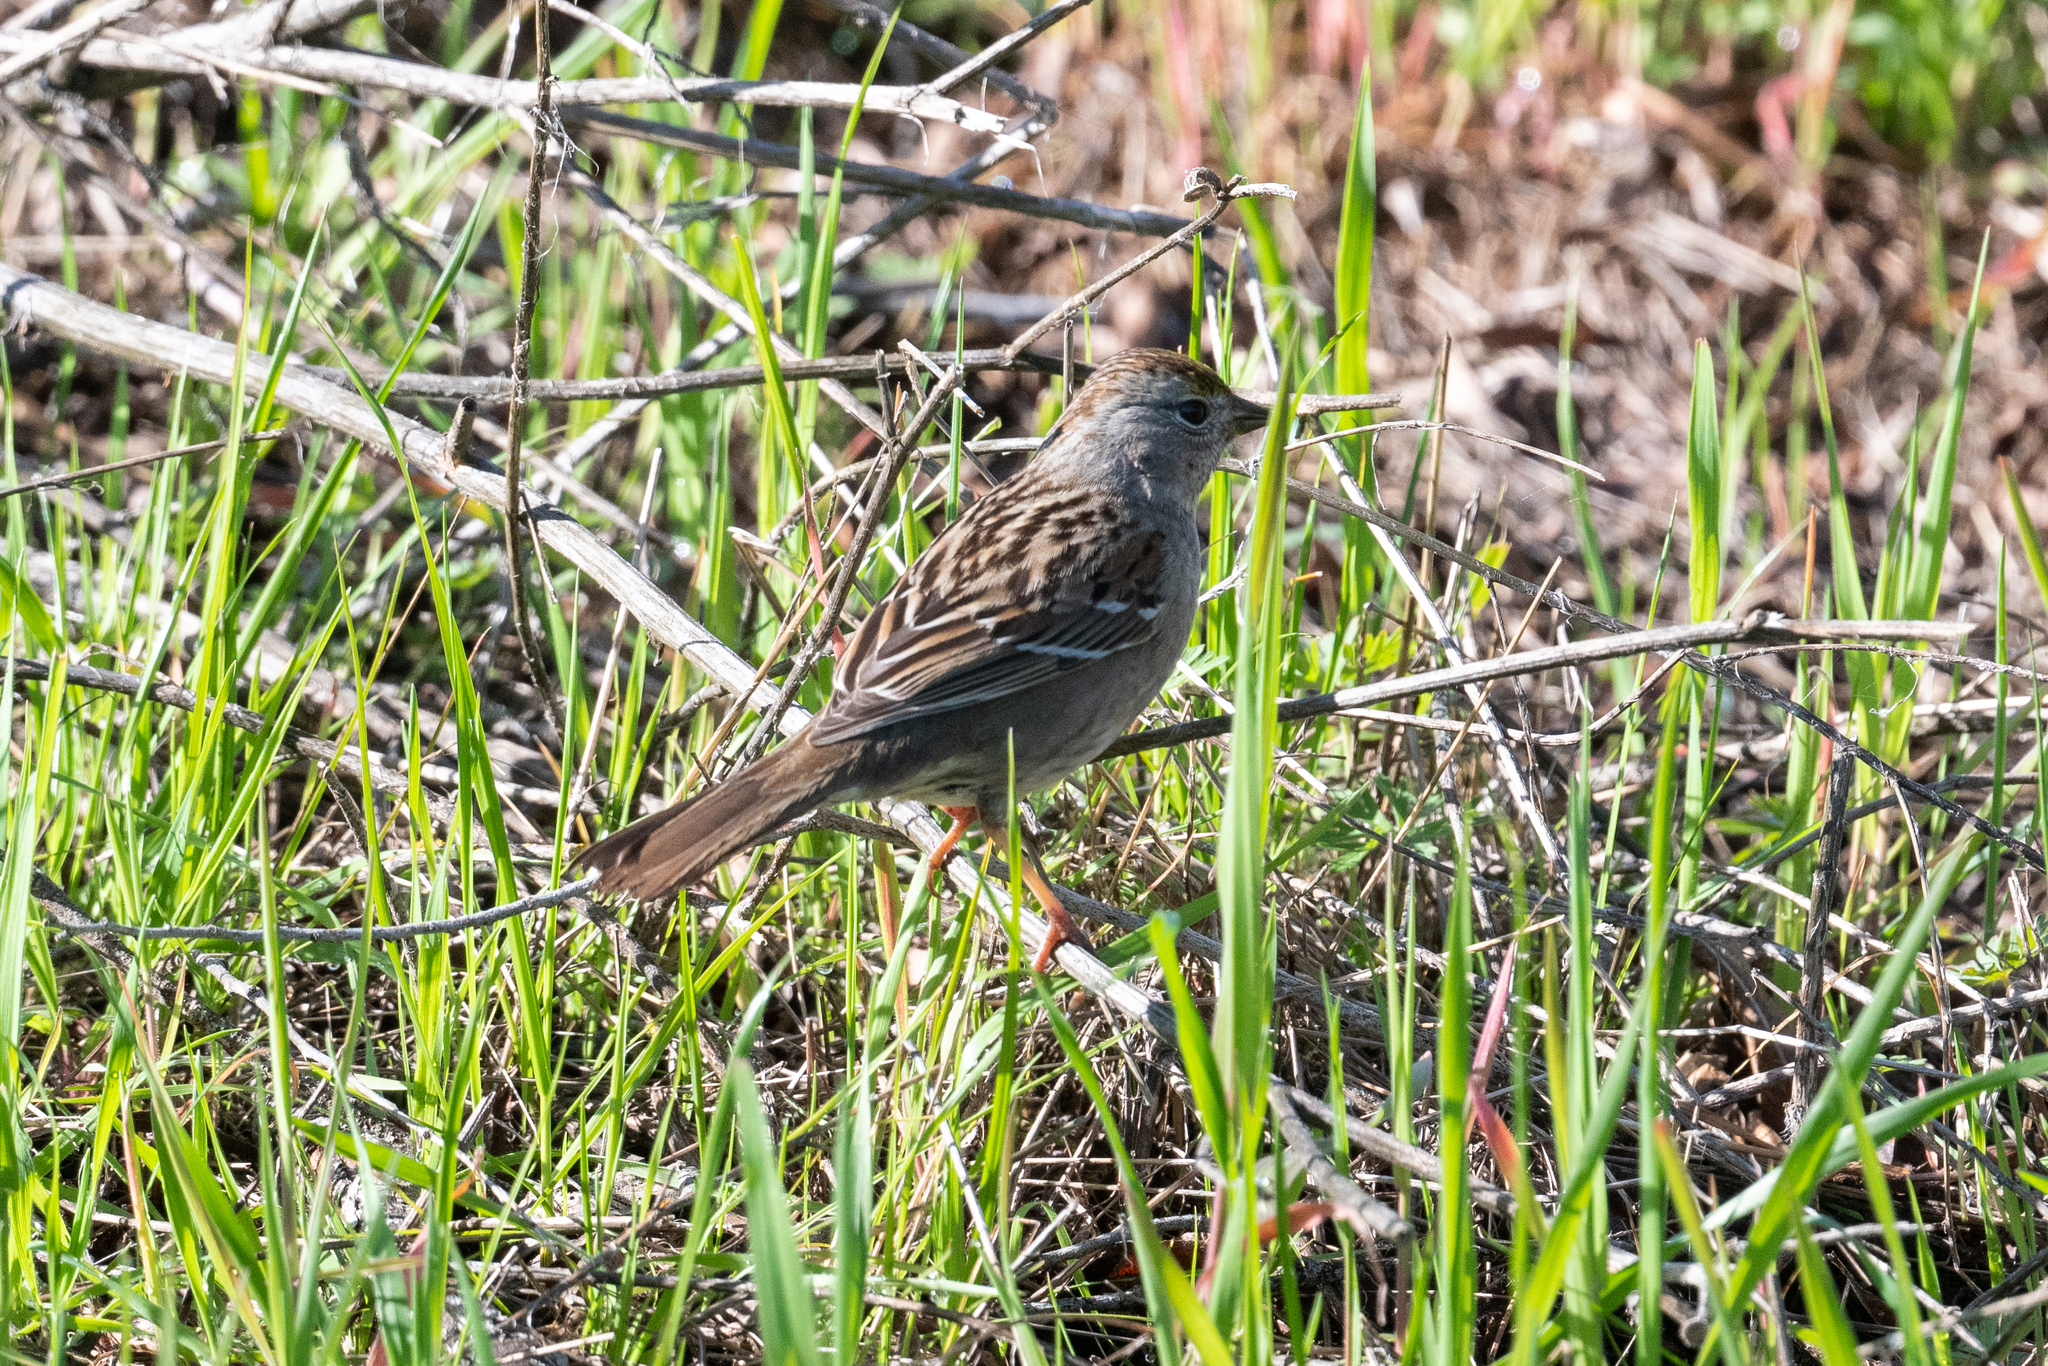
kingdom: Animalia
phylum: Chordata
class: Aves
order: Passeriformes
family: Passerellidae
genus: Zonotrichia
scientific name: Zonotrichia atricapilla
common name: Golden-crowned sparrow
